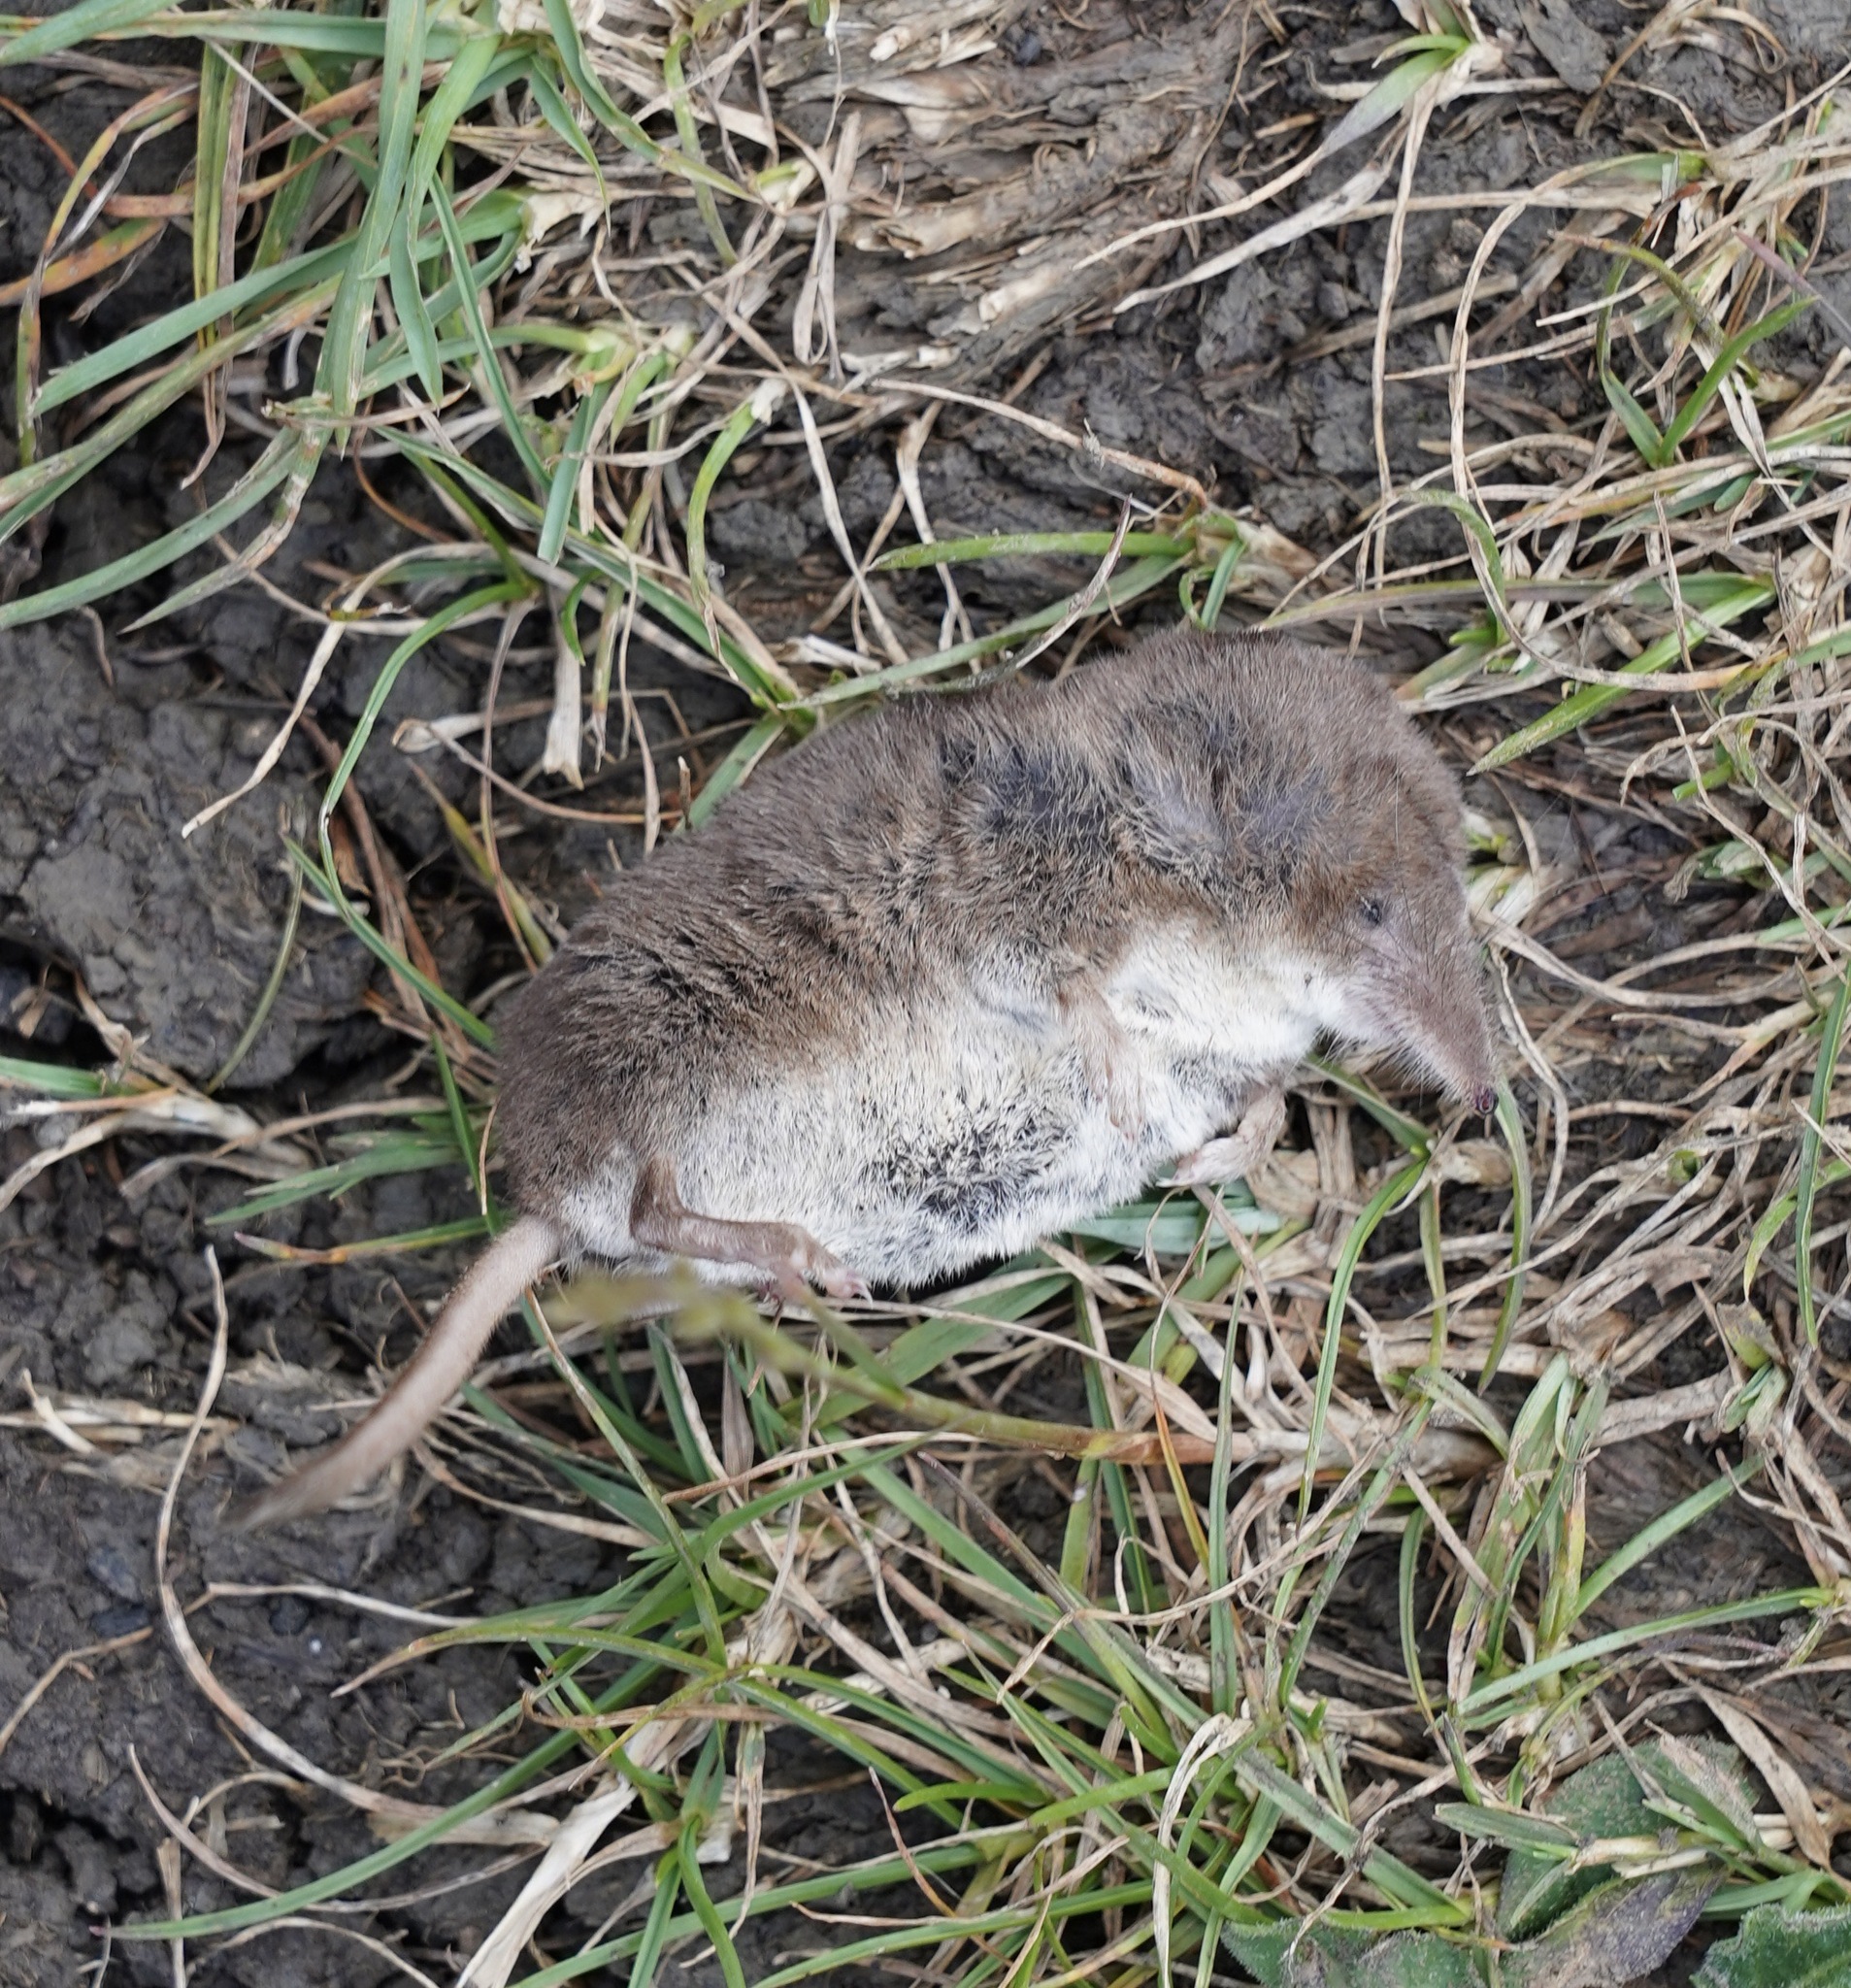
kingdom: Animalia
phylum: Chordata
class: Mammalia
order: Soricomorpha
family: Soricidae
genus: Sorex
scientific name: Sorex araneus
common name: Common shrew
